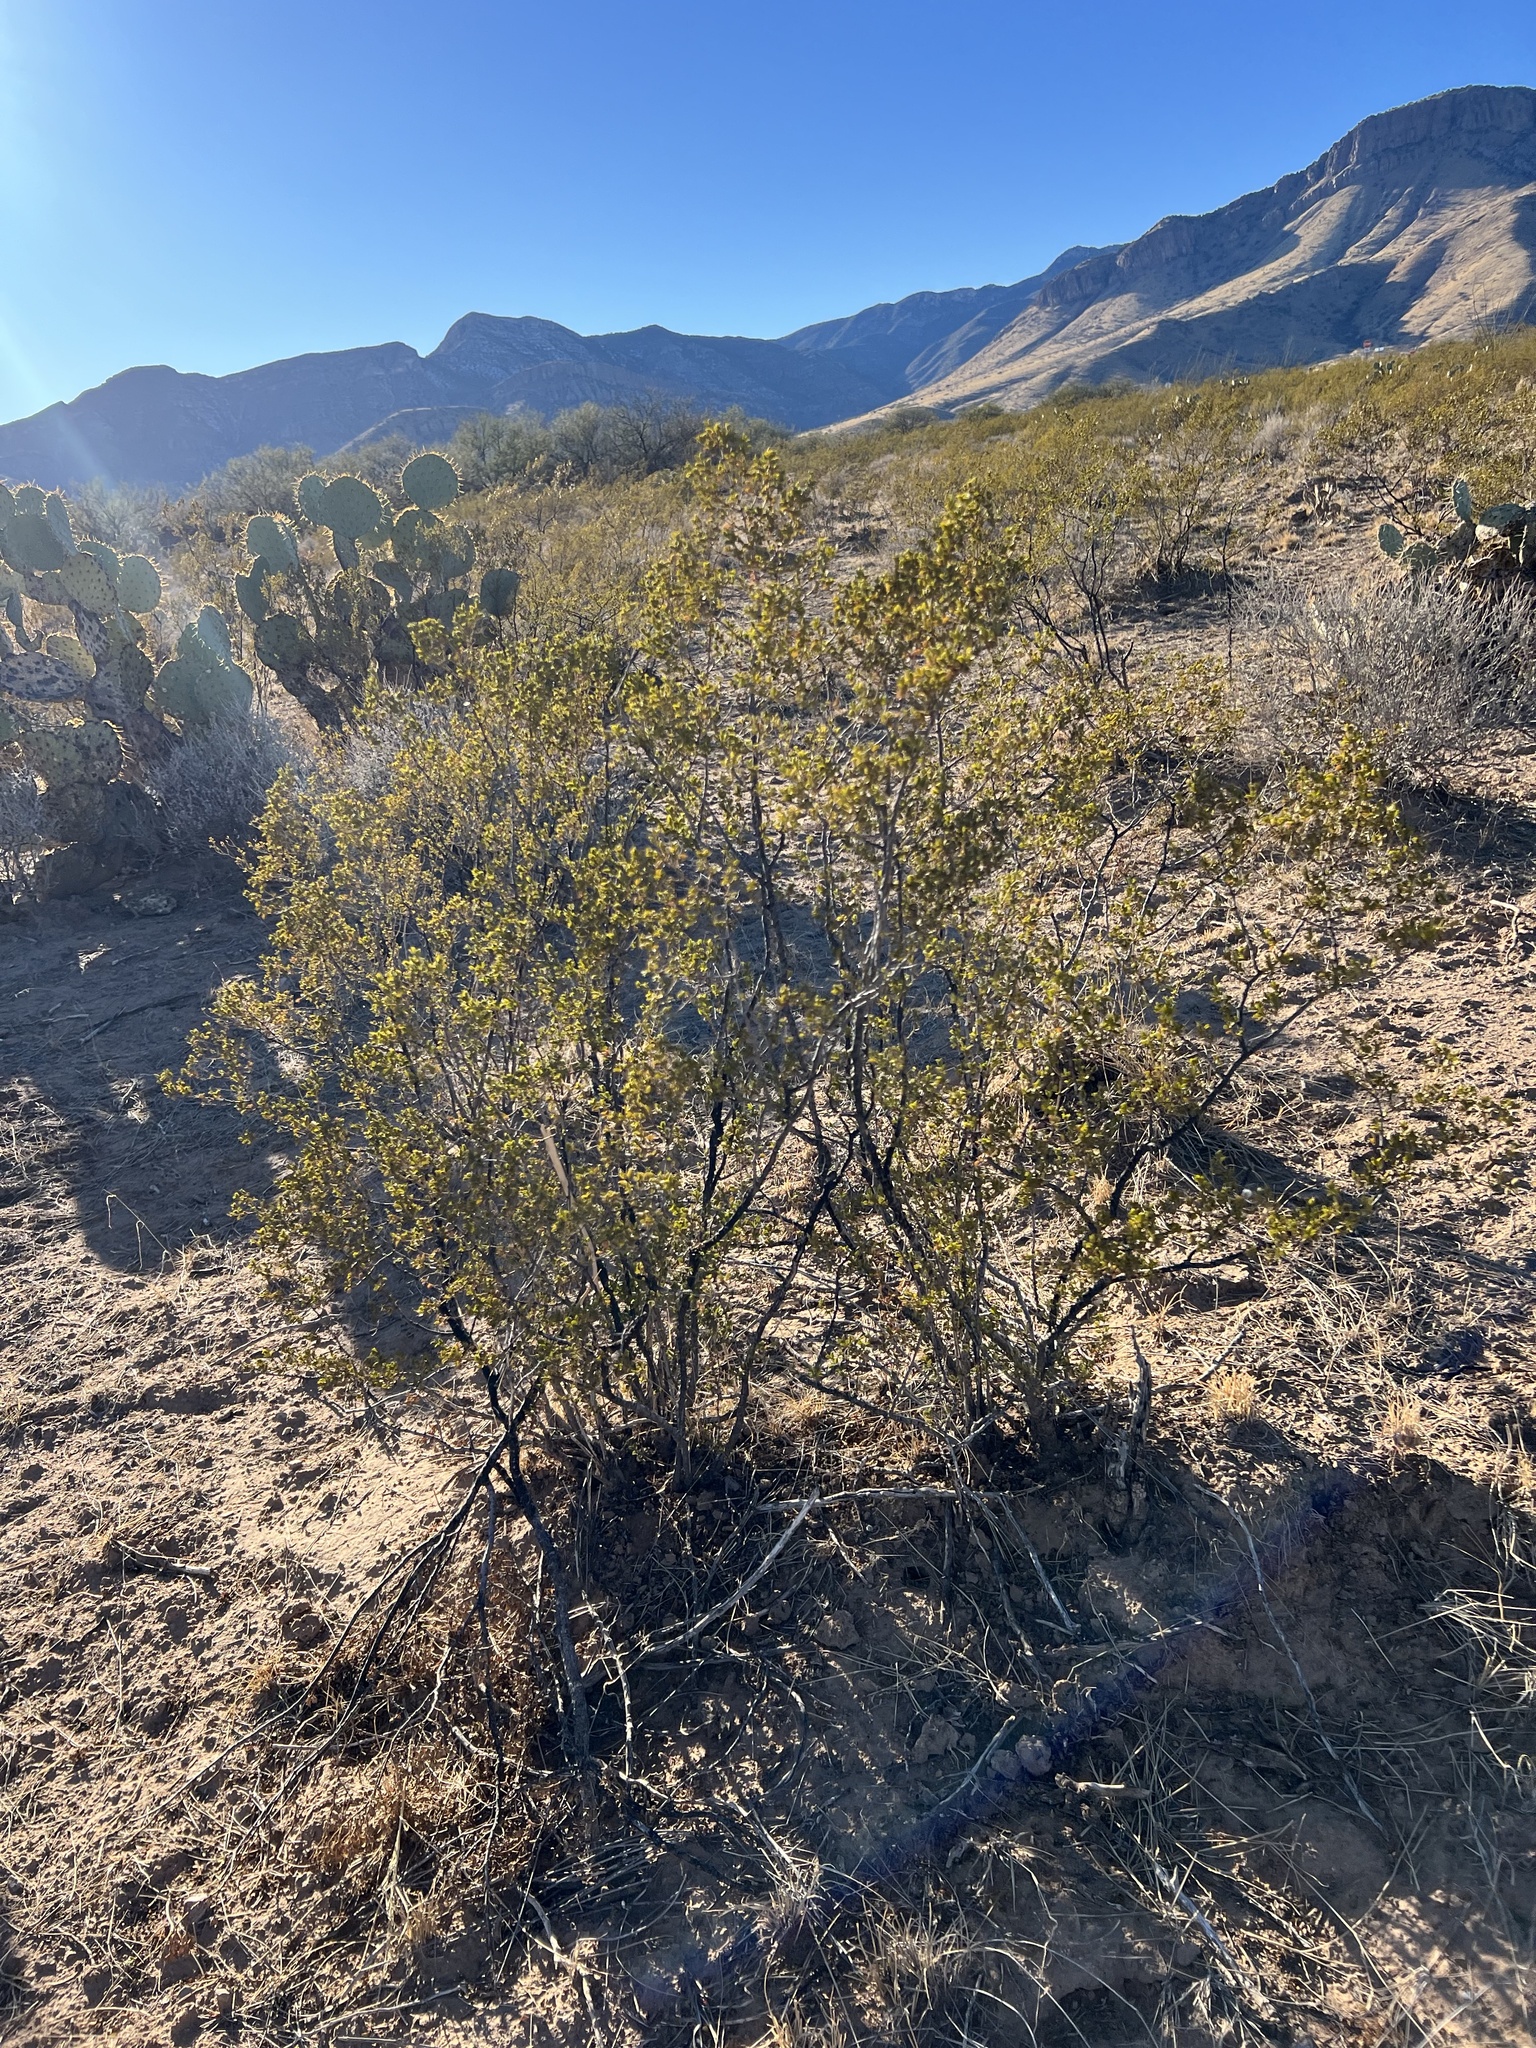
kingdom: Plantae
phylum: Tracheophyta
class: Magnoliopsida
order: Zygophyllales
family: Zygophyllaceae
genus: Larrea
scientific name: Larrea tridentata
